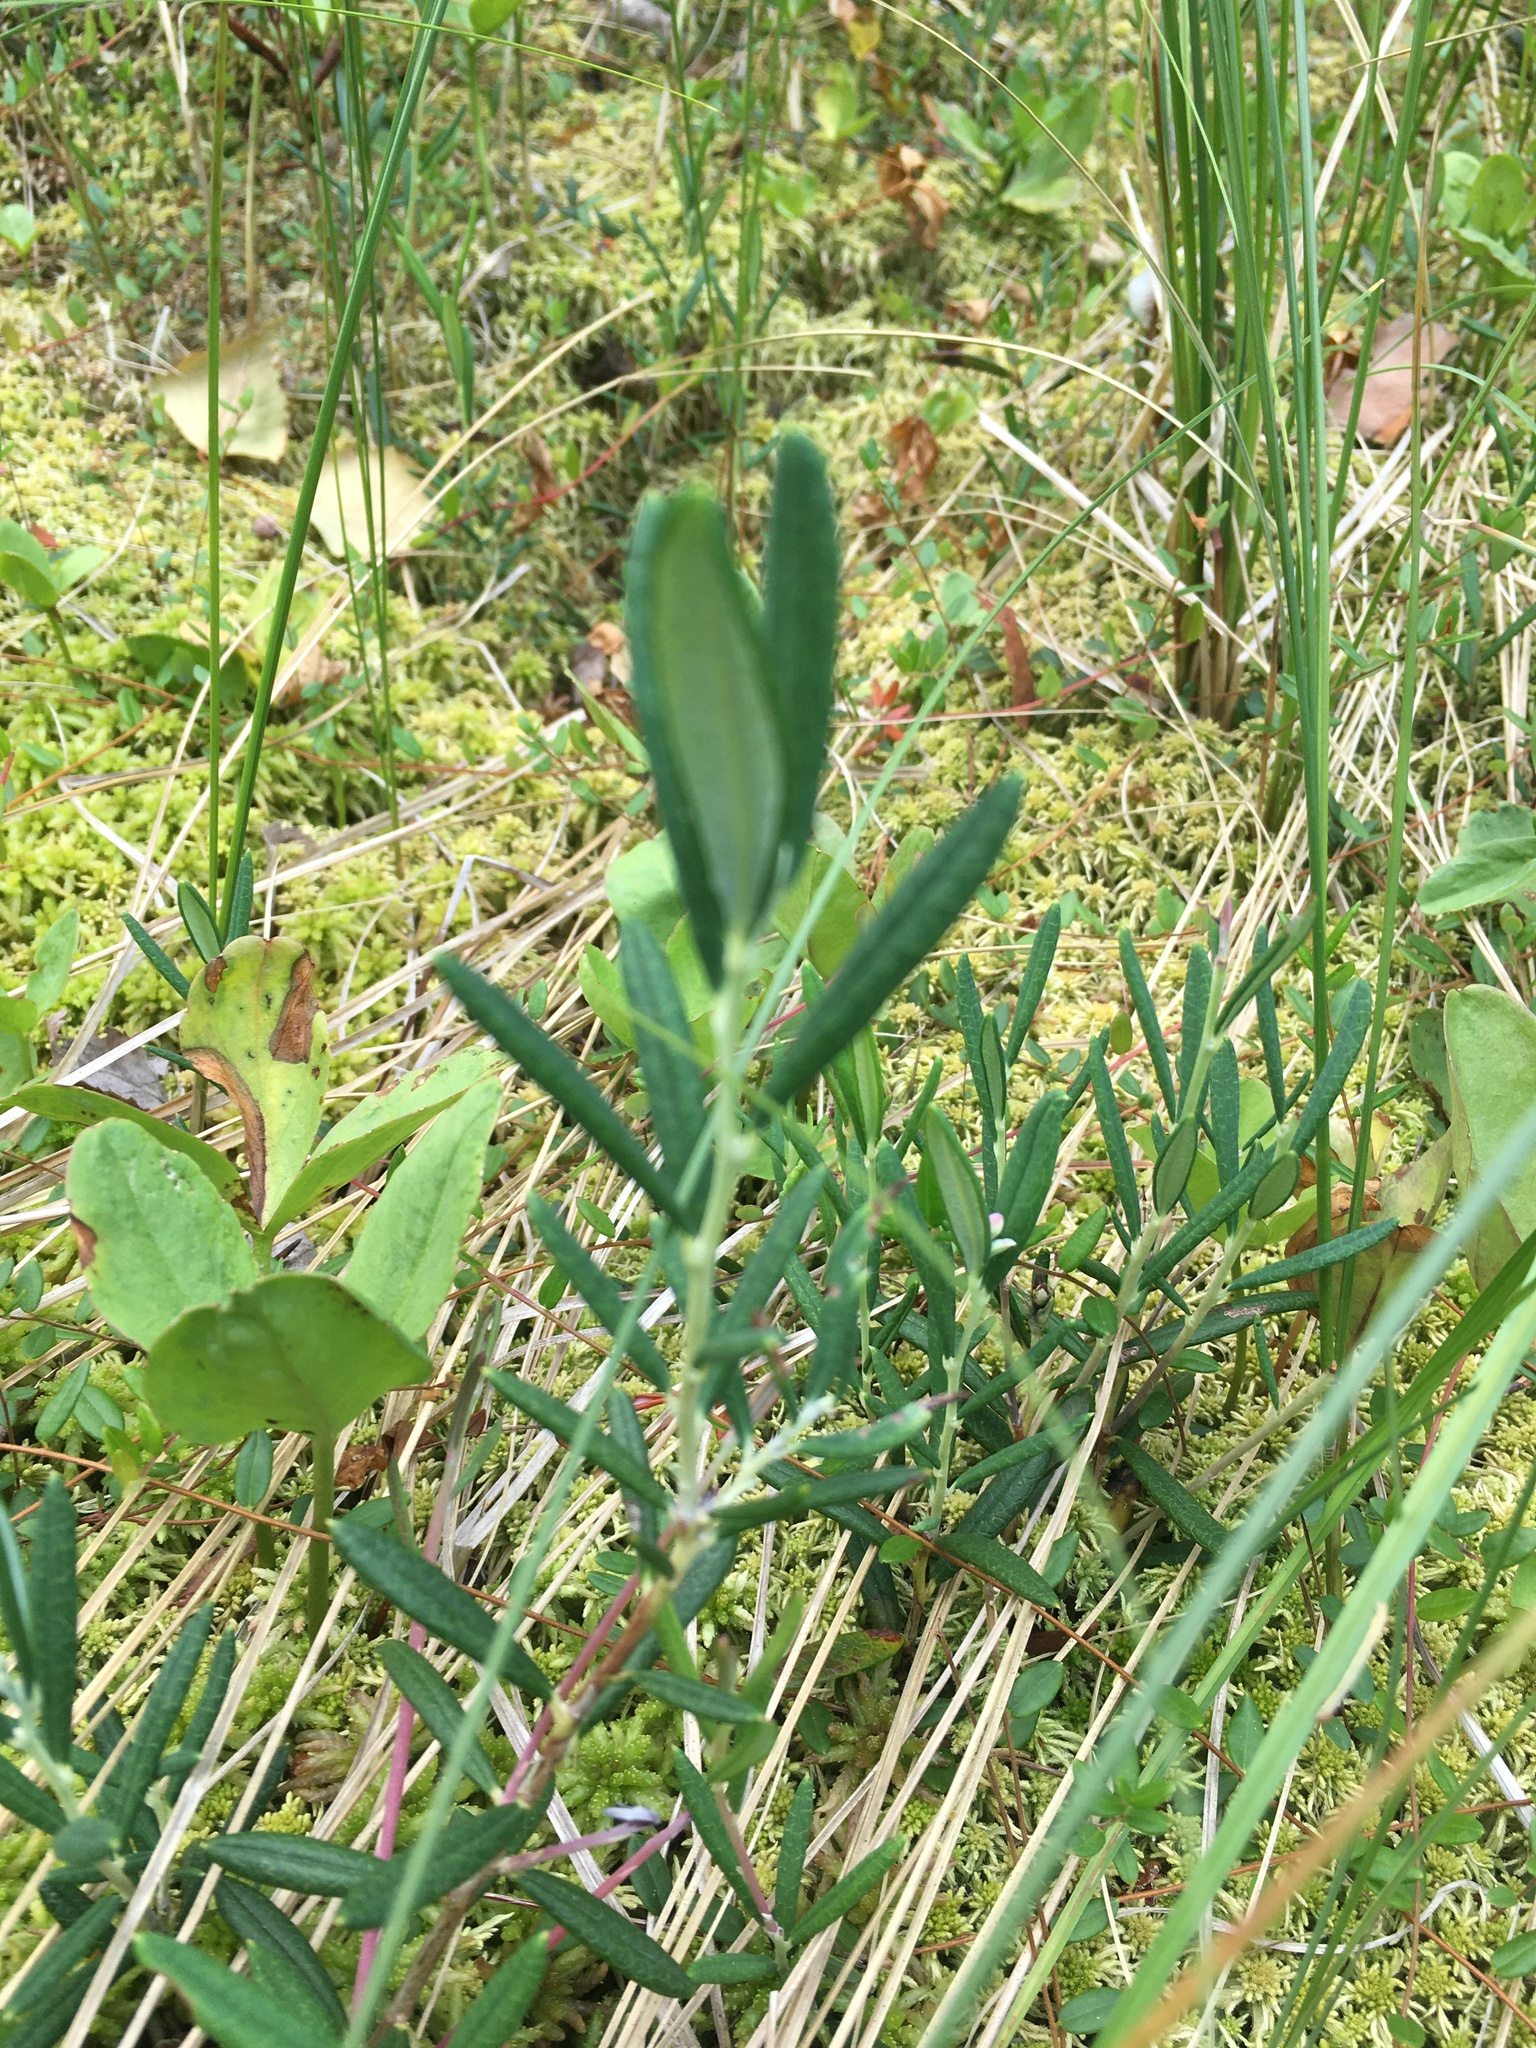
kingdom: Plantae
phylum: Tracheophyta
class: Magnoliopsida
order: Ericales
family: Ericaceae
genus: Andromeda
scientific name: Andromeda polifolia
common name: Bog-rosemary
